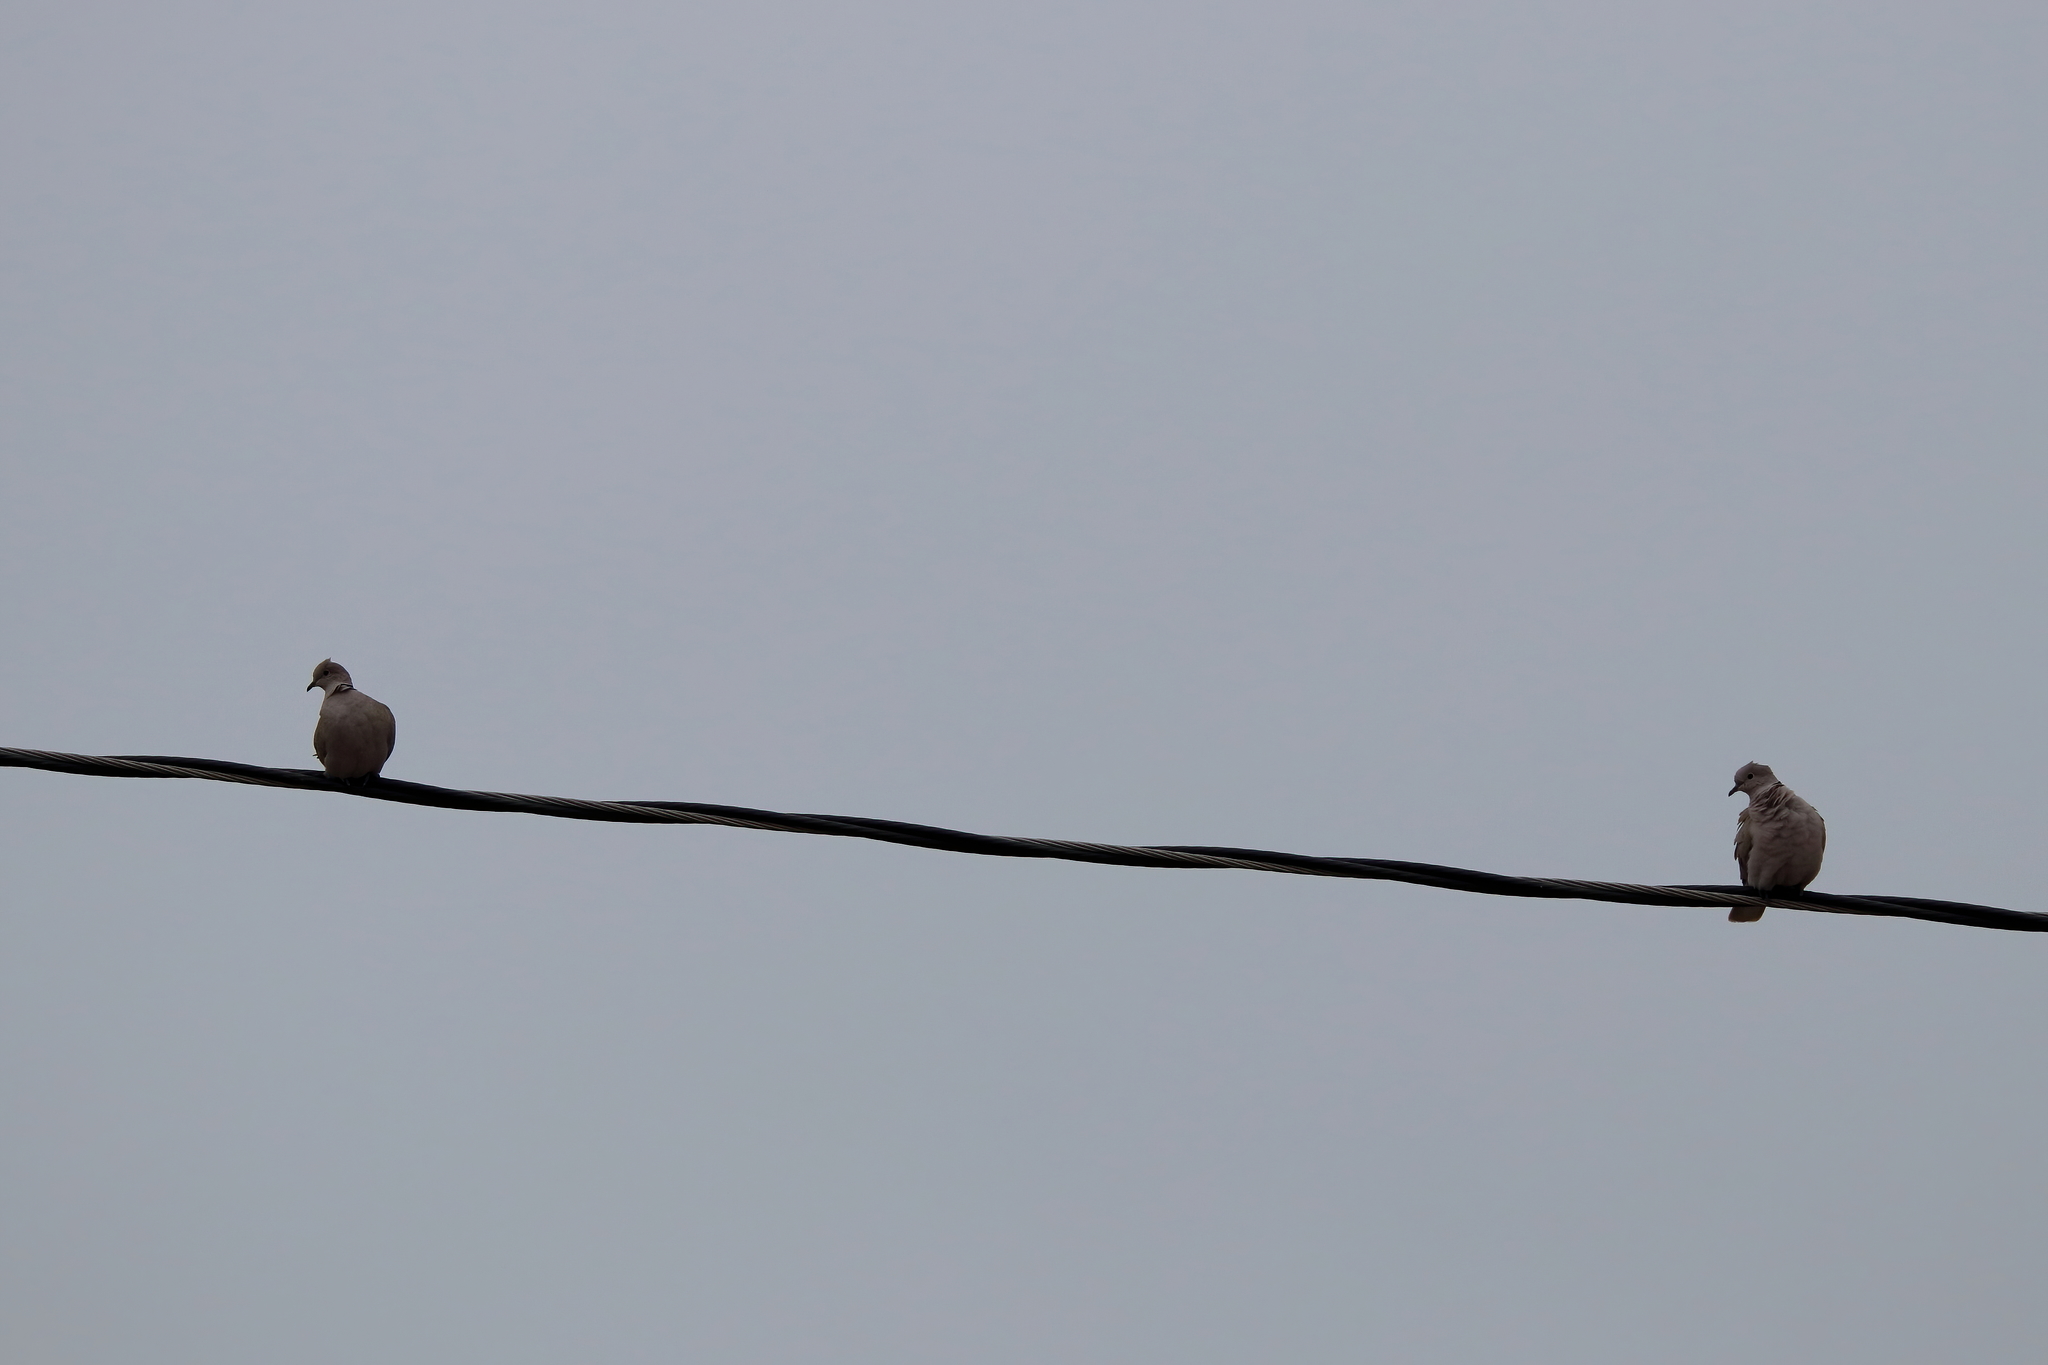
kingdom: Animalia
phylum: Chordata
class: Aves
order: Columbiformes
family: Columbidae
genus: Streptopelia
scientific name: Streptopelia decaocto
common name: Eurasian collared dove
